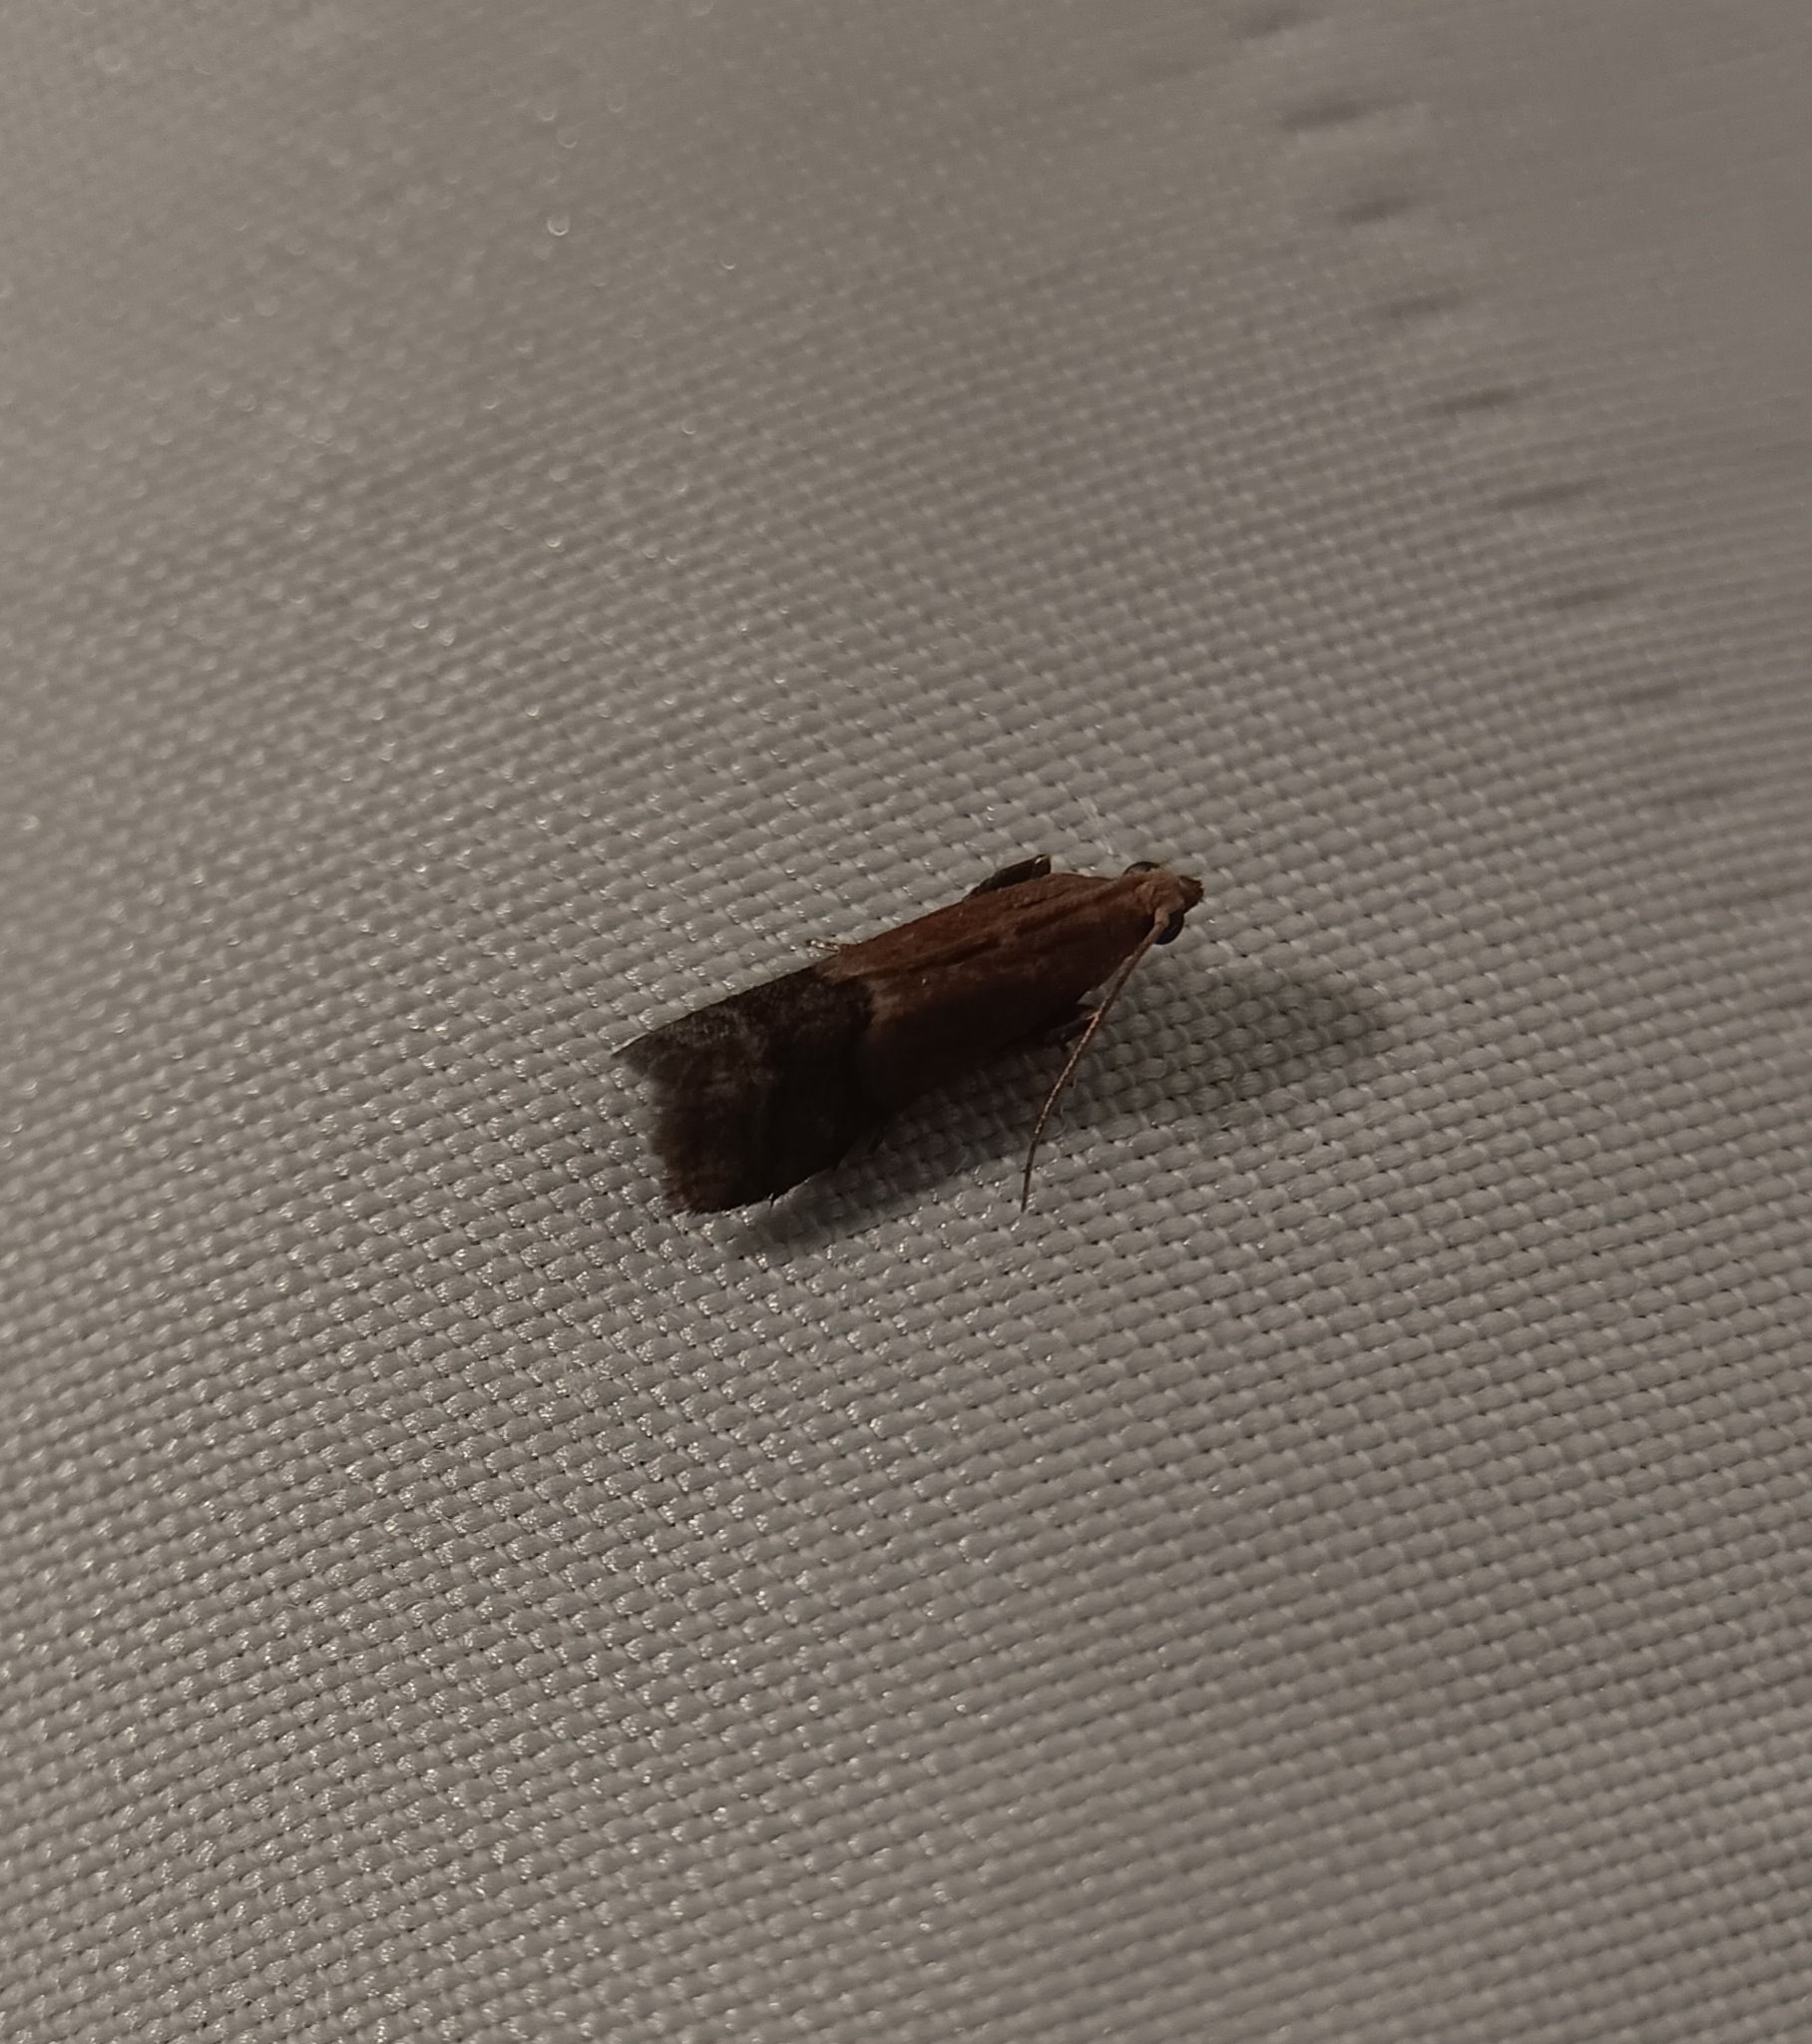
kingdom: Animalia
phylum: Arthropoda
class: Insecta
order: Lepidoptera
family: Pyralidae
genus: Eulogia
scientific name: Eulogia ochrifrontella
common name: Broad-banded eulogia moth
